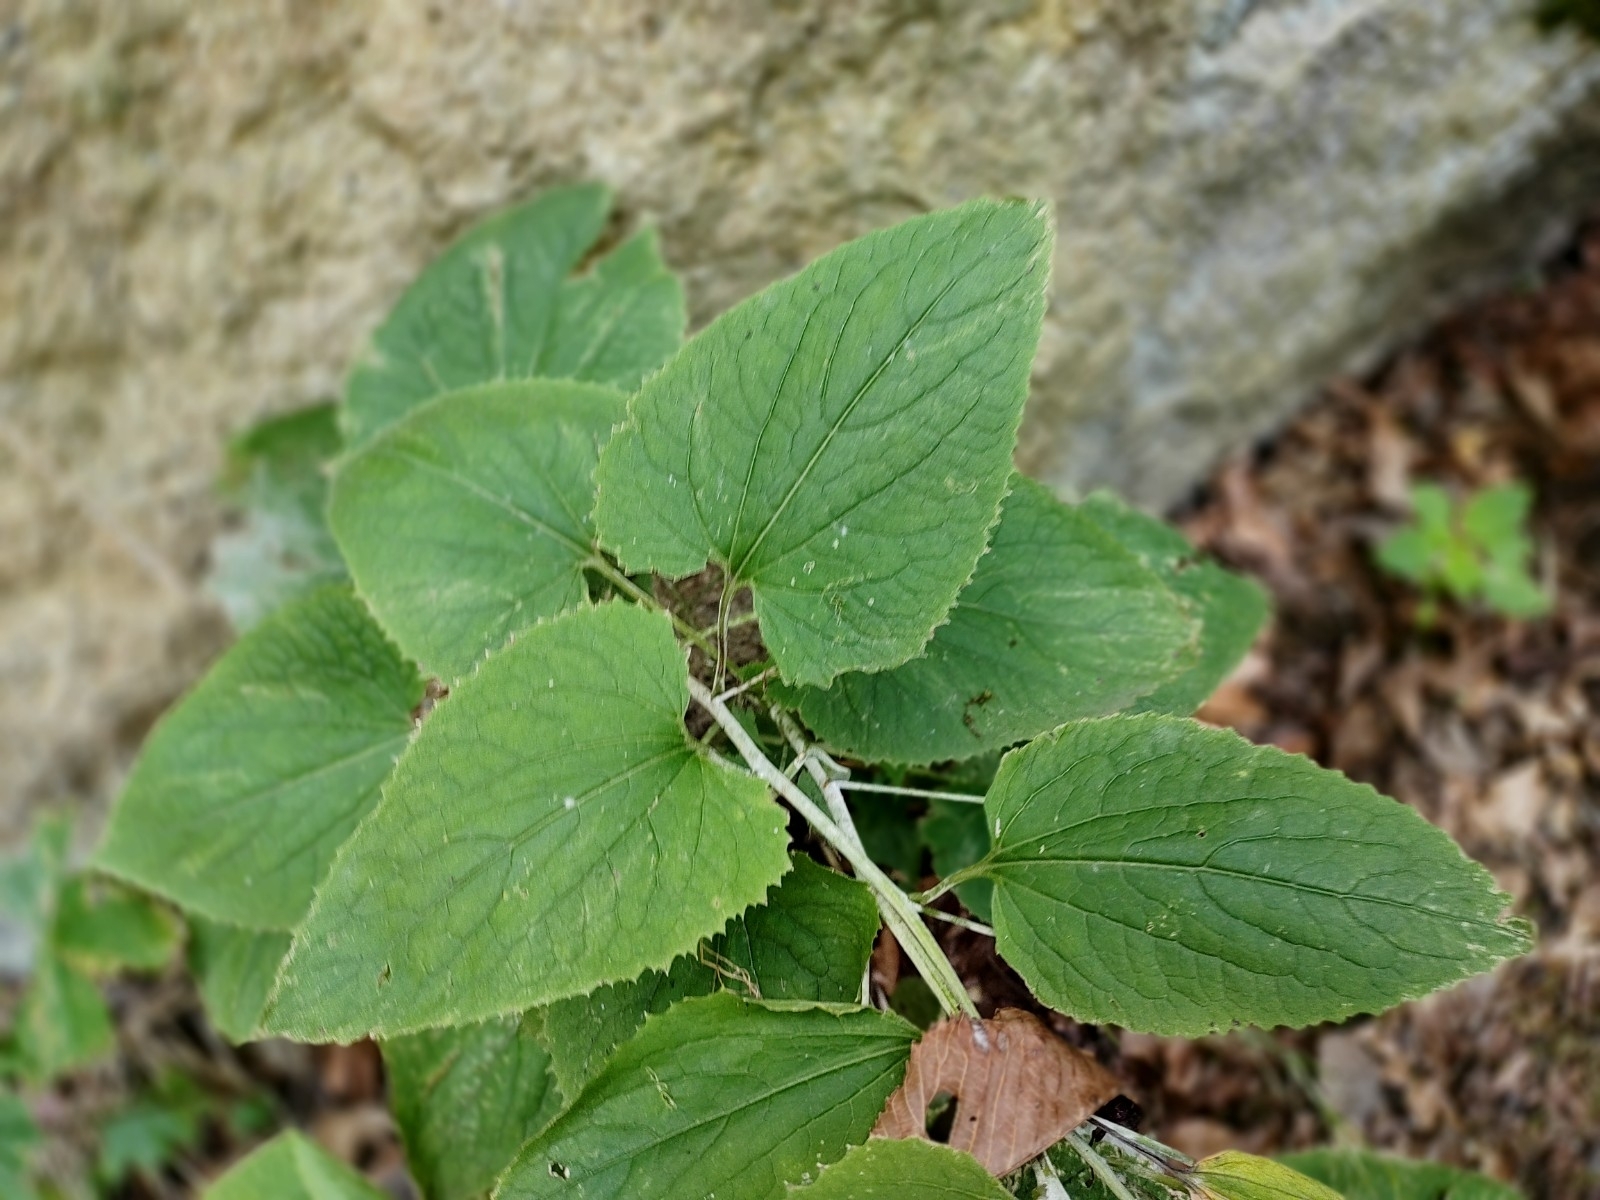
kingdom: Plantae
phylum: Tracheophyta
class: Magnoliopsida
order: Brassicales
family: Brassicaceae
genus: Lunaria
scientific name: Lunaria rediviva
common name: Perennial honesty
